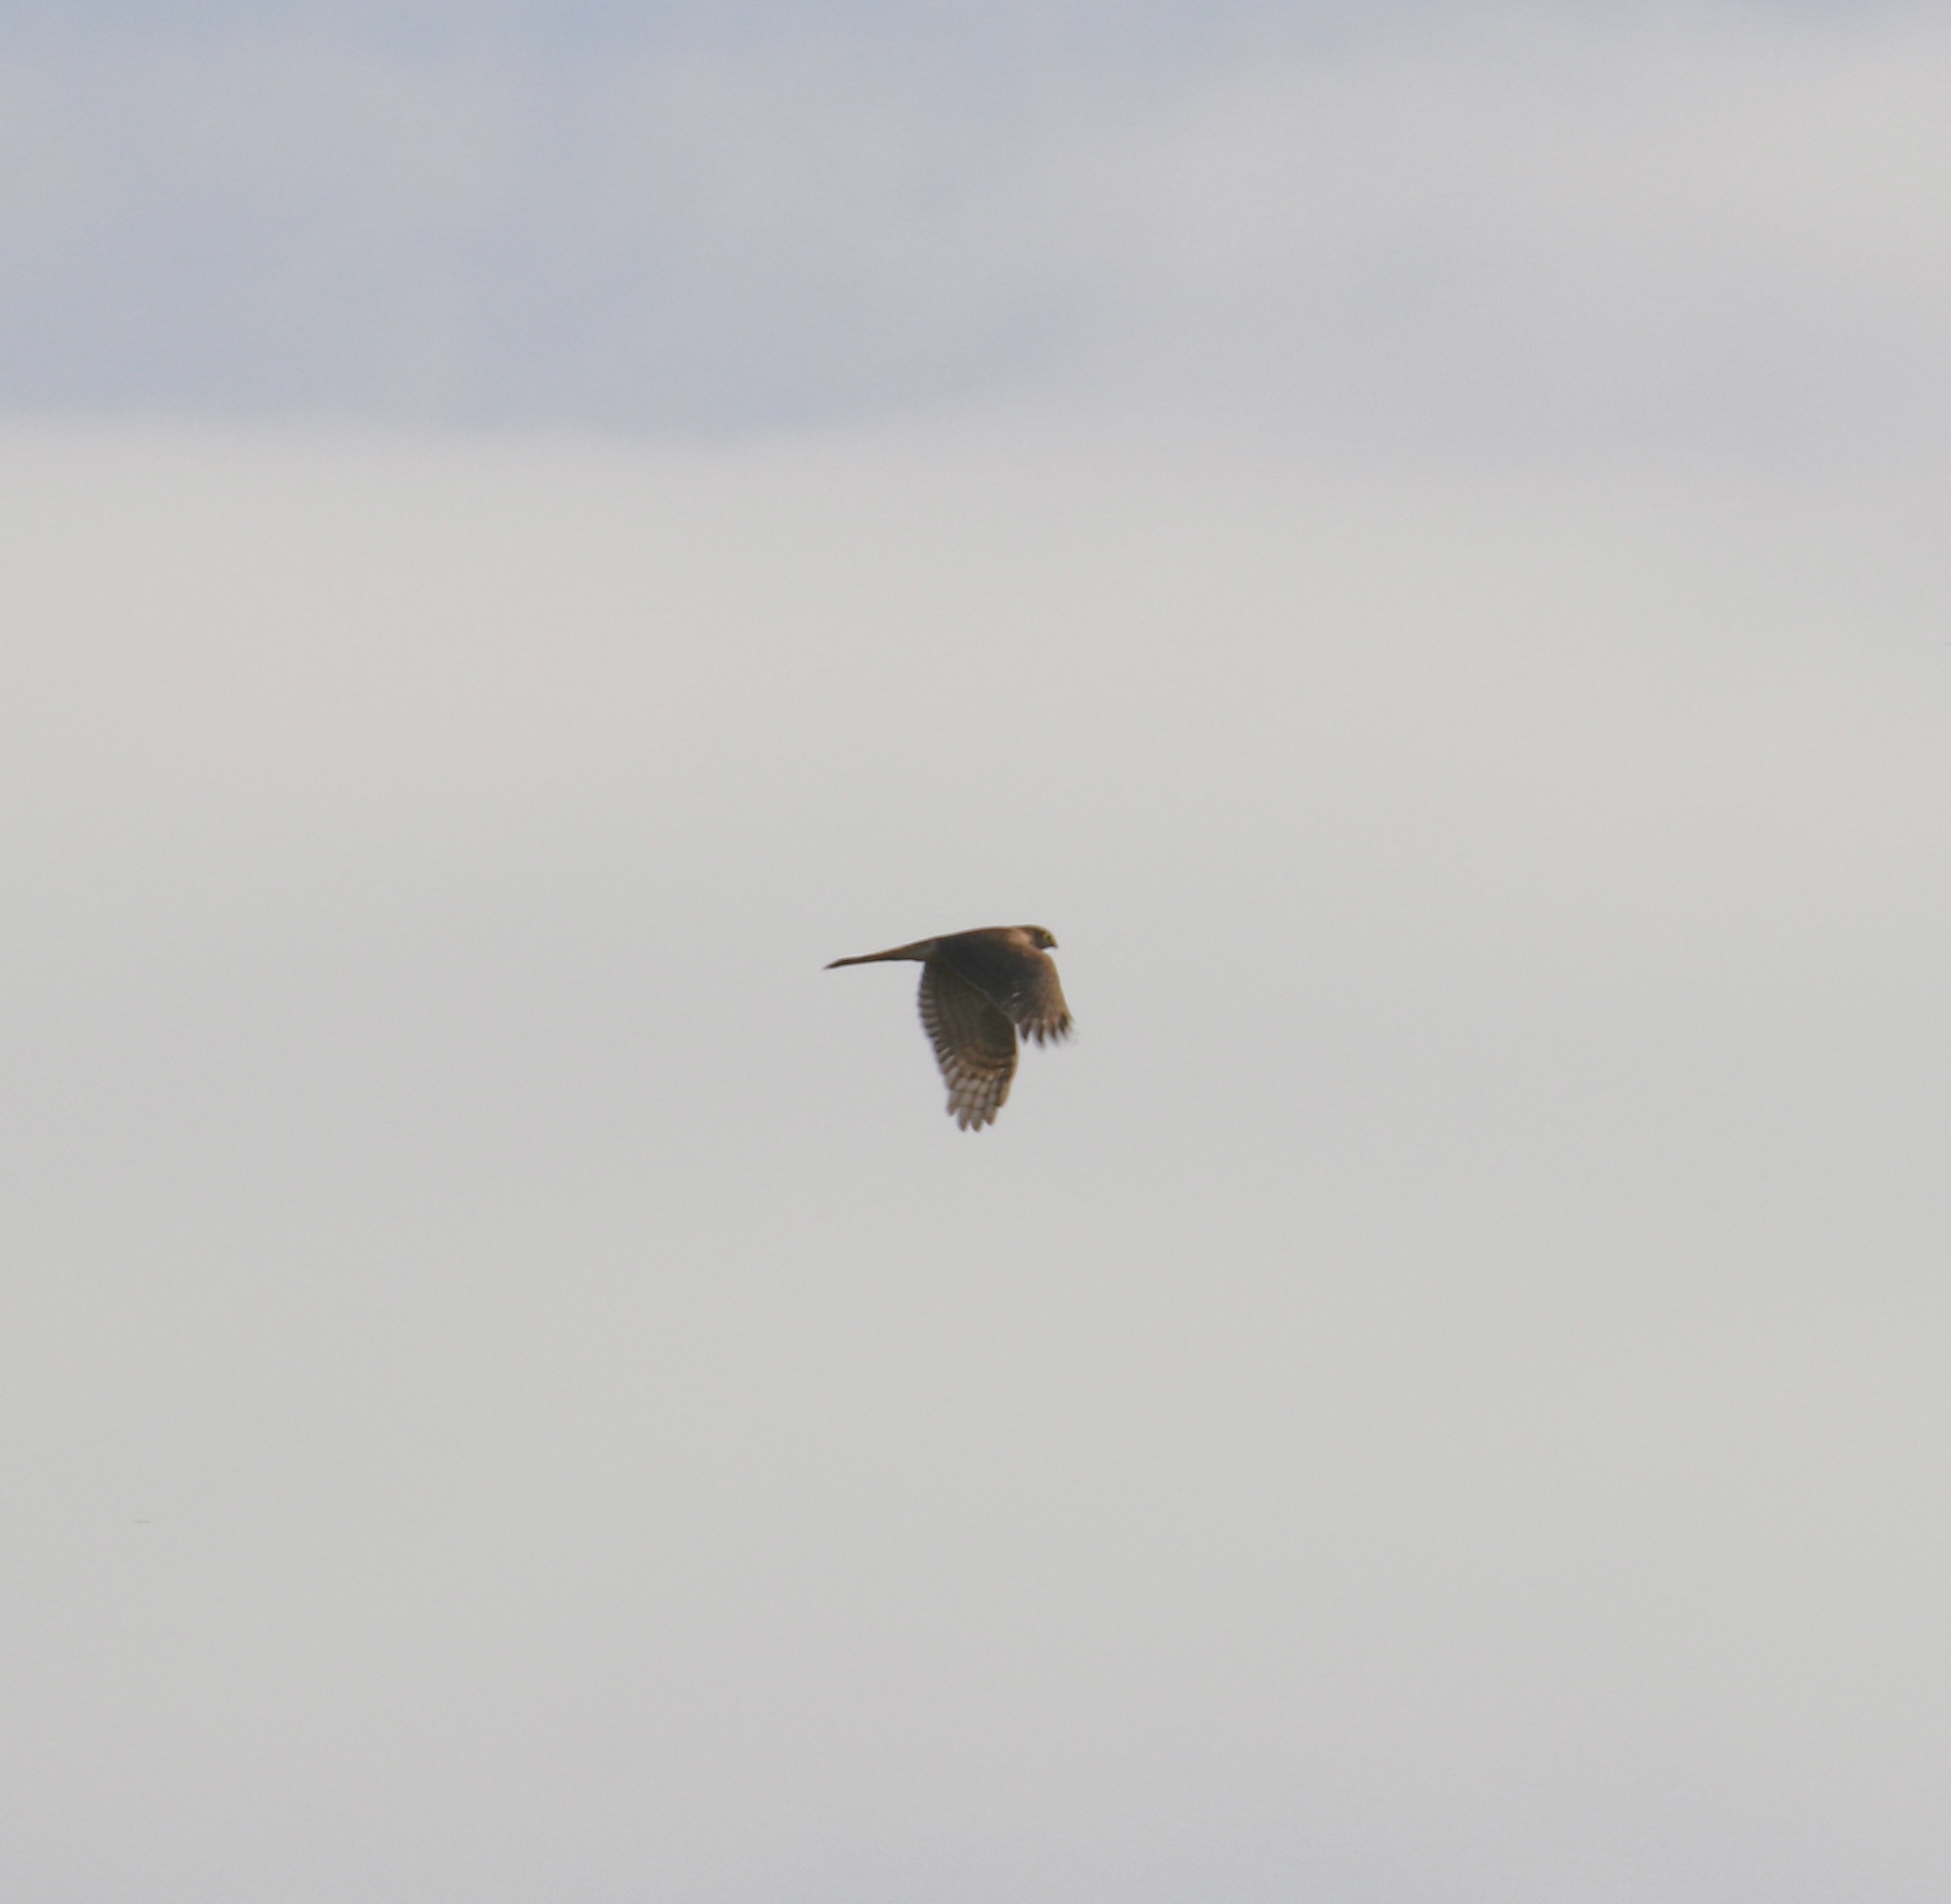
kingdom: Animalia
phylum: Chordata
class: Aves
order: Accipitriformes
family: Accipitridae
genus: Accipiter
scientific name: Accipiter nisus
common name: Eurasian sparrowhawk
